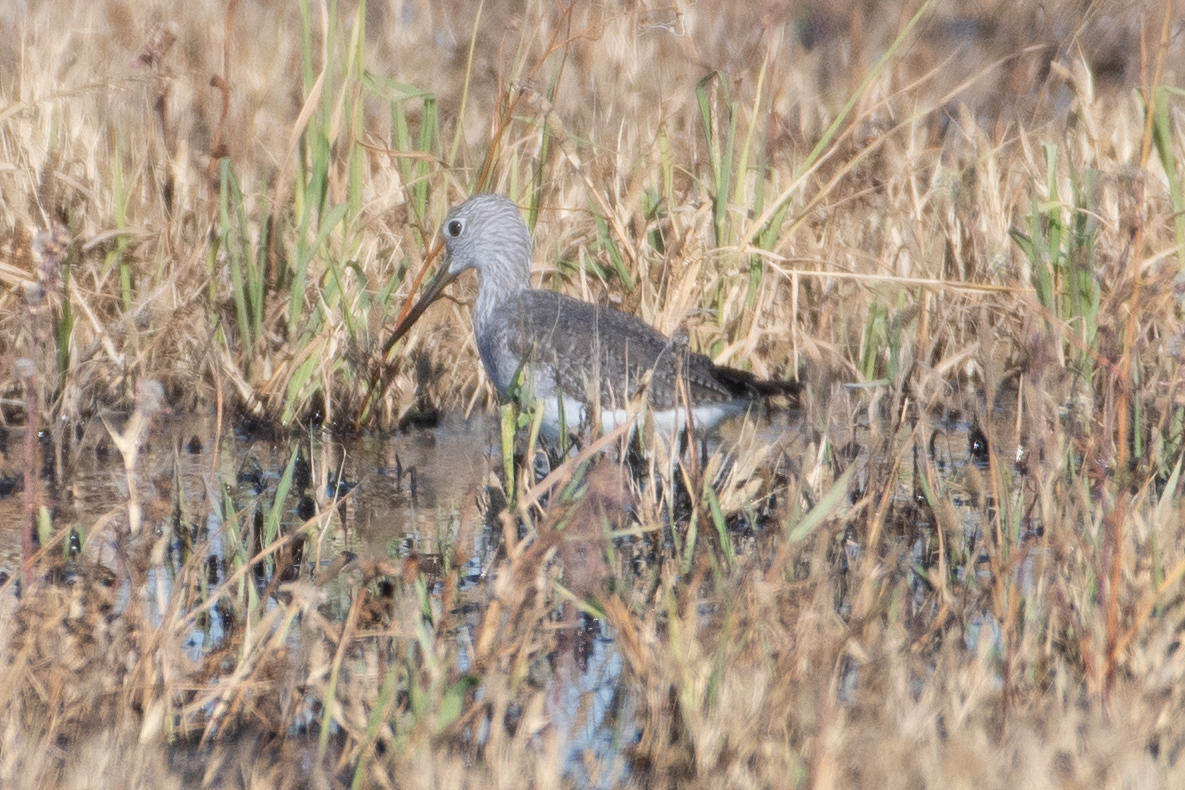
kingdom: Animalia
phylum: Chordata
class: Aves
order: Charadriiformes
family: Scolopacidae
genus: Tringa
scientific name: Tringa melanoleuca
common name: Greater yellowlegs
